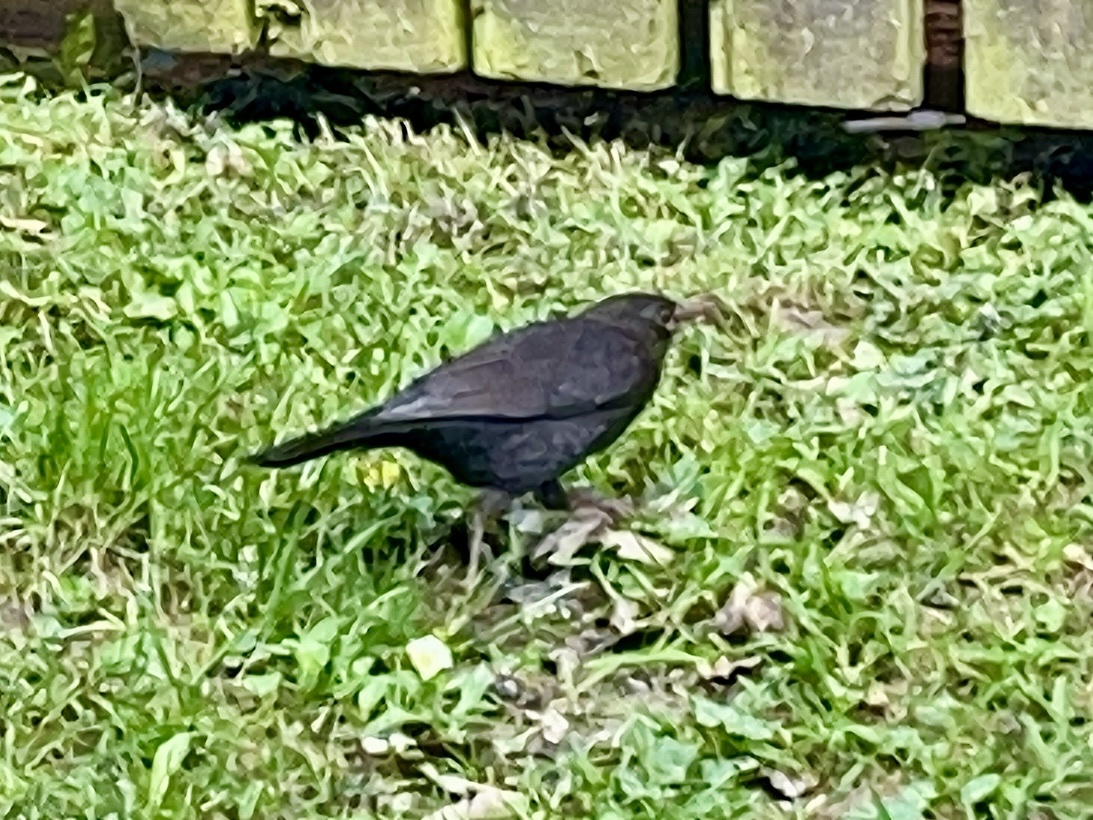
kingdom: Animalia
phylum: Chordata
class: Aves
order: Passeriformes
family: Turdidae
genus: Turdus
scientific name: Turdus merula
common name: Common blackbird
